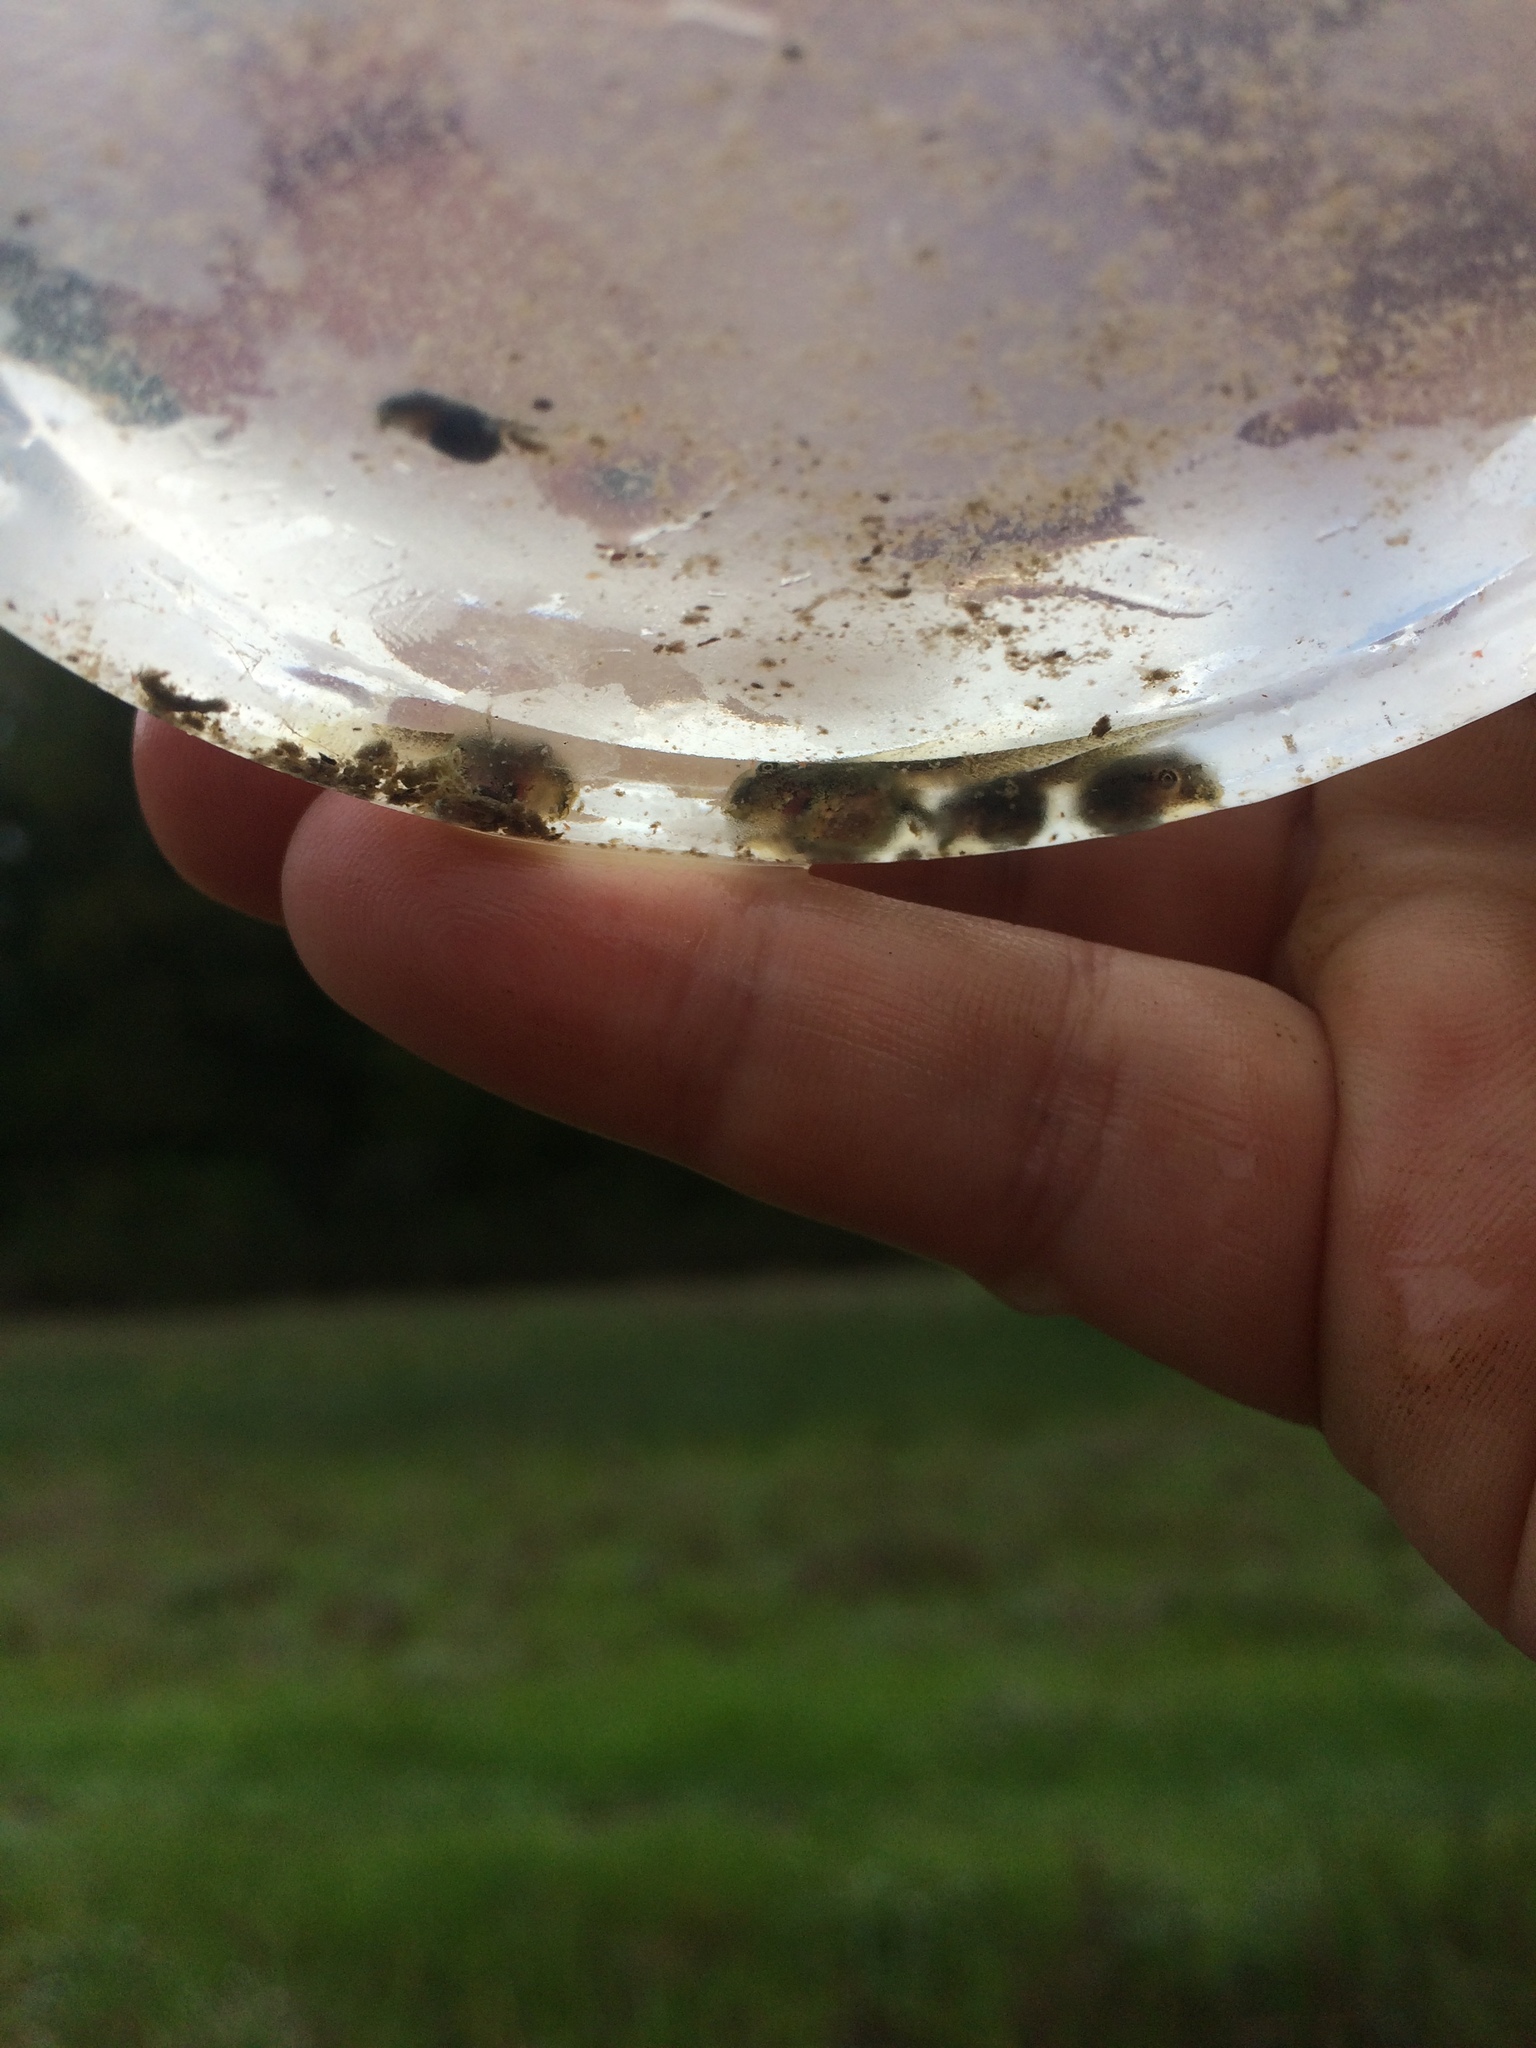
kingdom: Animalia
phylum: Chordata
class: Amphibia
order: Anura
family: Hylidae
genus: Pseudacris
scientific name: Pseudacris regilla
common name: Pacific chorus frog
